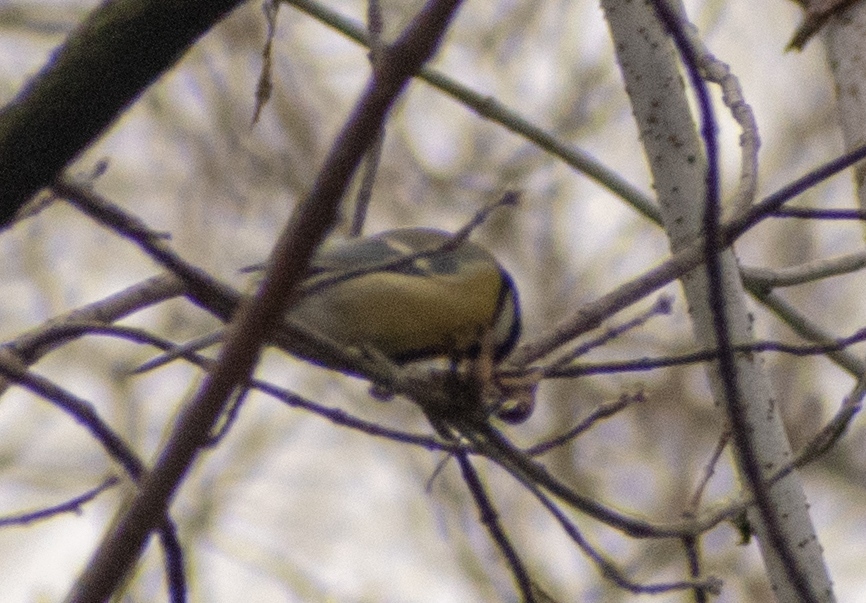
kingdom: Animalia
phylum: Chordata
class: Aves
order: Passeriformes
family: Paridae
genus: Parus
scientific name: Parus major
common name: Great tit
